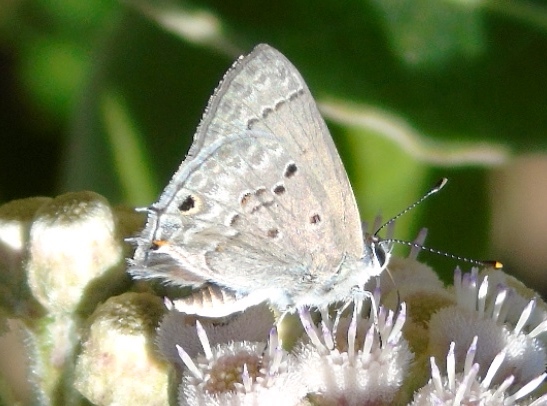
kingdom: Animalia
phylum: Arthropoda
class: Insecta
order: Lepidoptera
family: Lycaenidae
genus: Callicista
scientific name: Callicista columella
